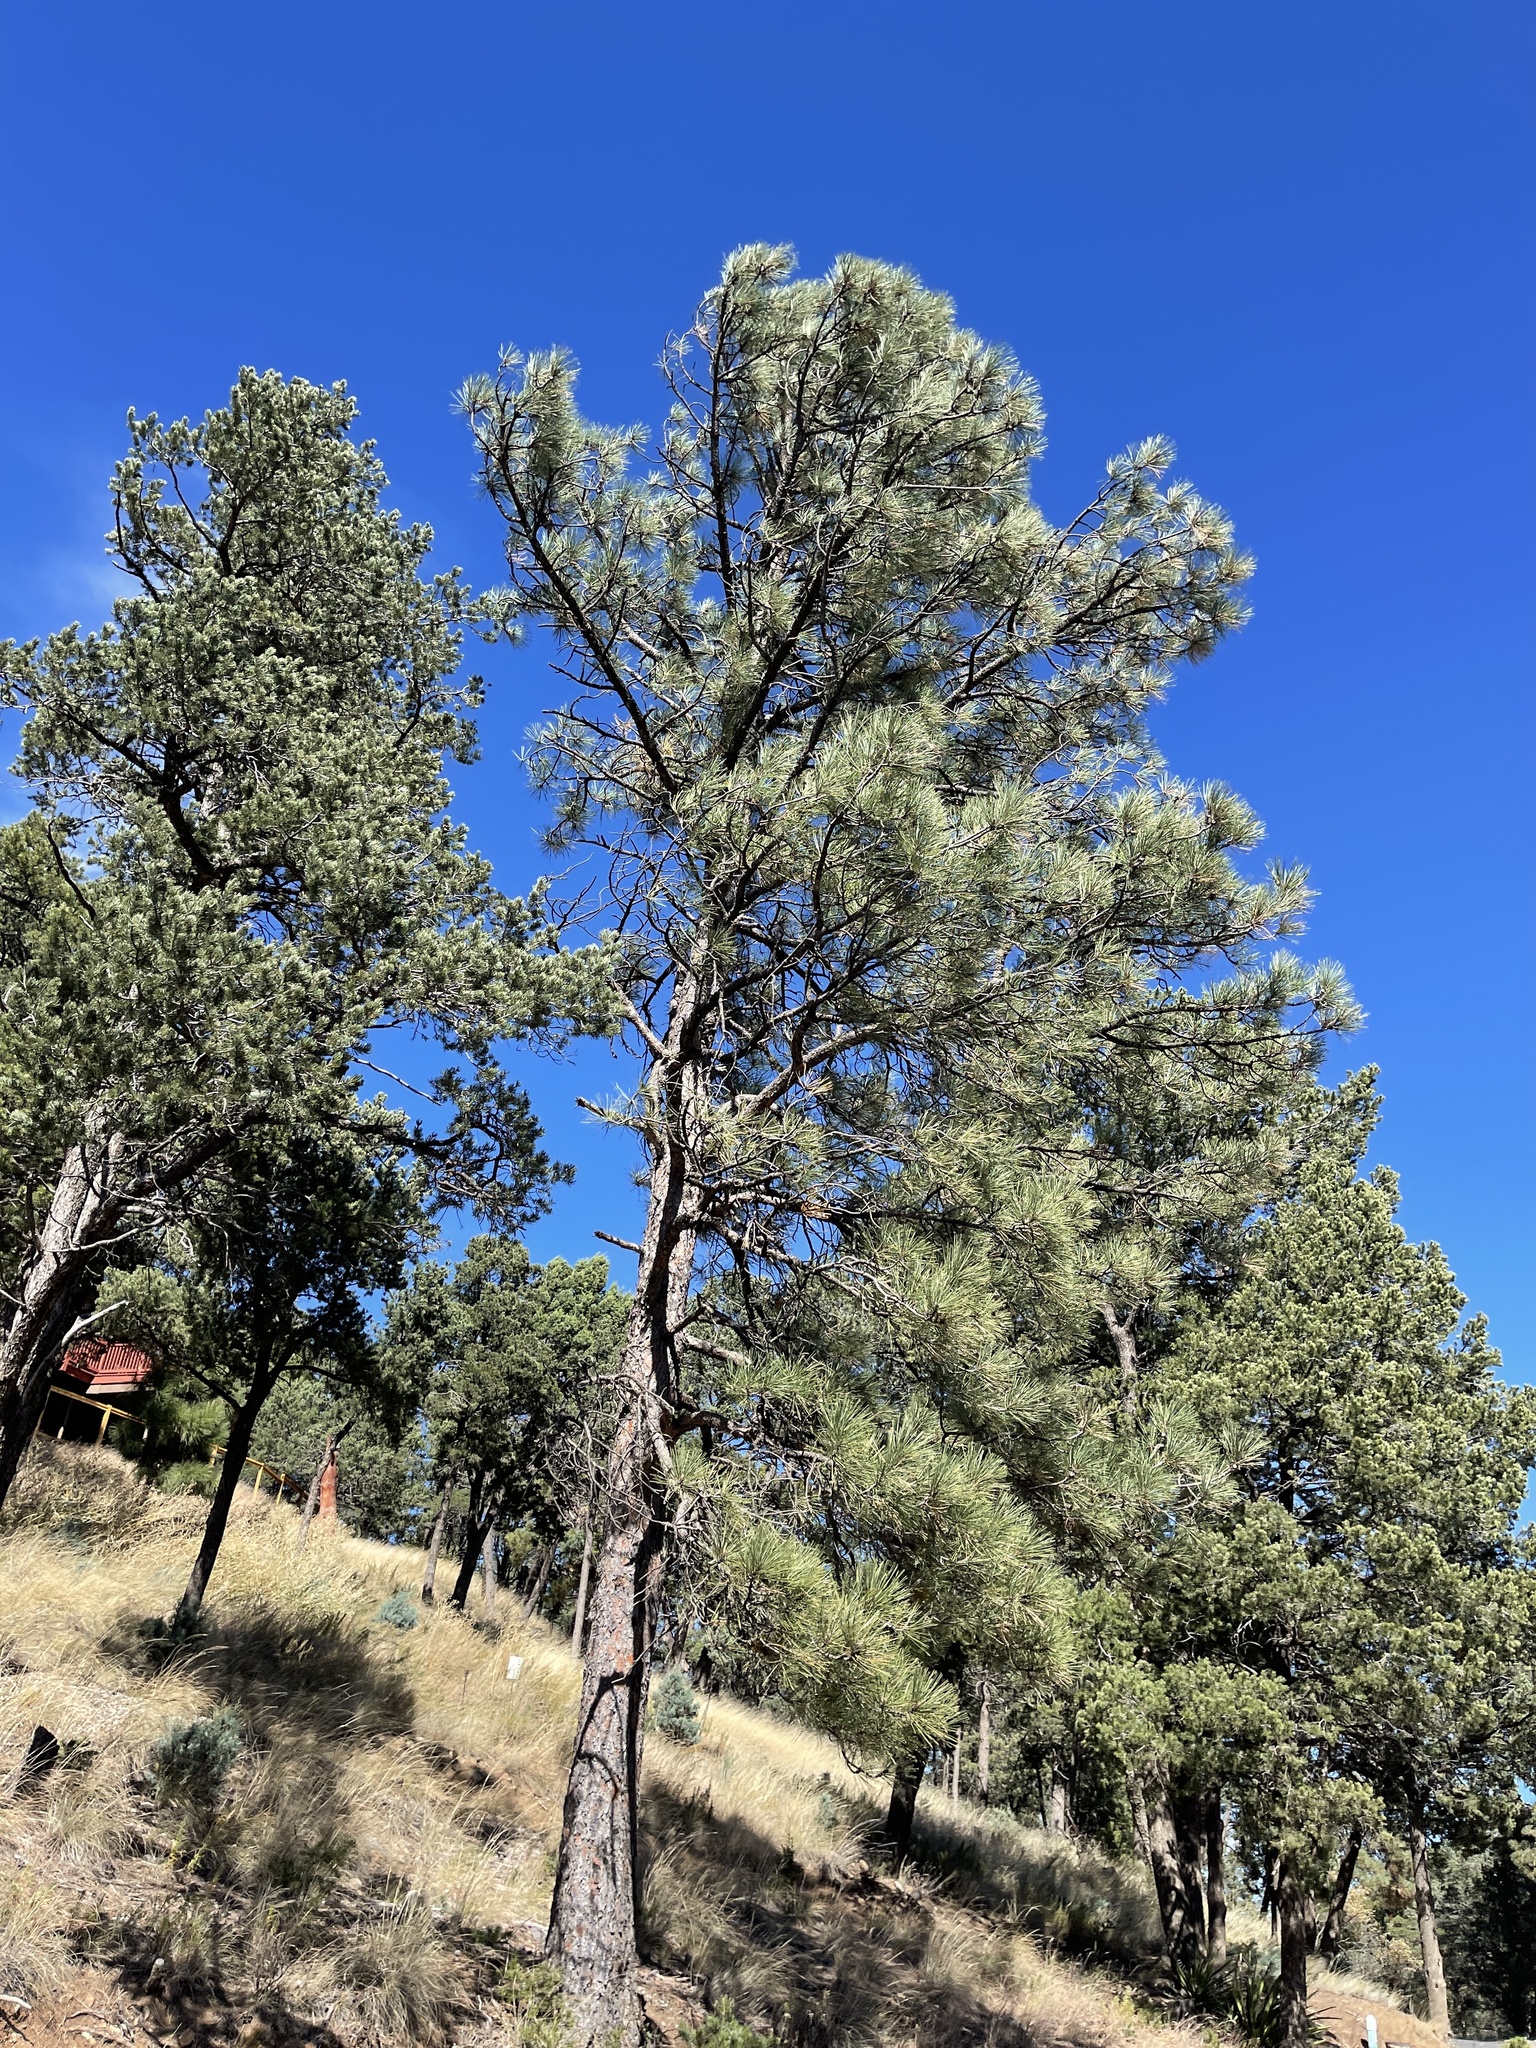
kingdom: Plantae
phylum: Tracheophyta
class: Pinopsida
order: Pinales
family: Pinaceae
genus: Pinus
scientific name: Pinus ponderosa
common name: Western yellow-pine
